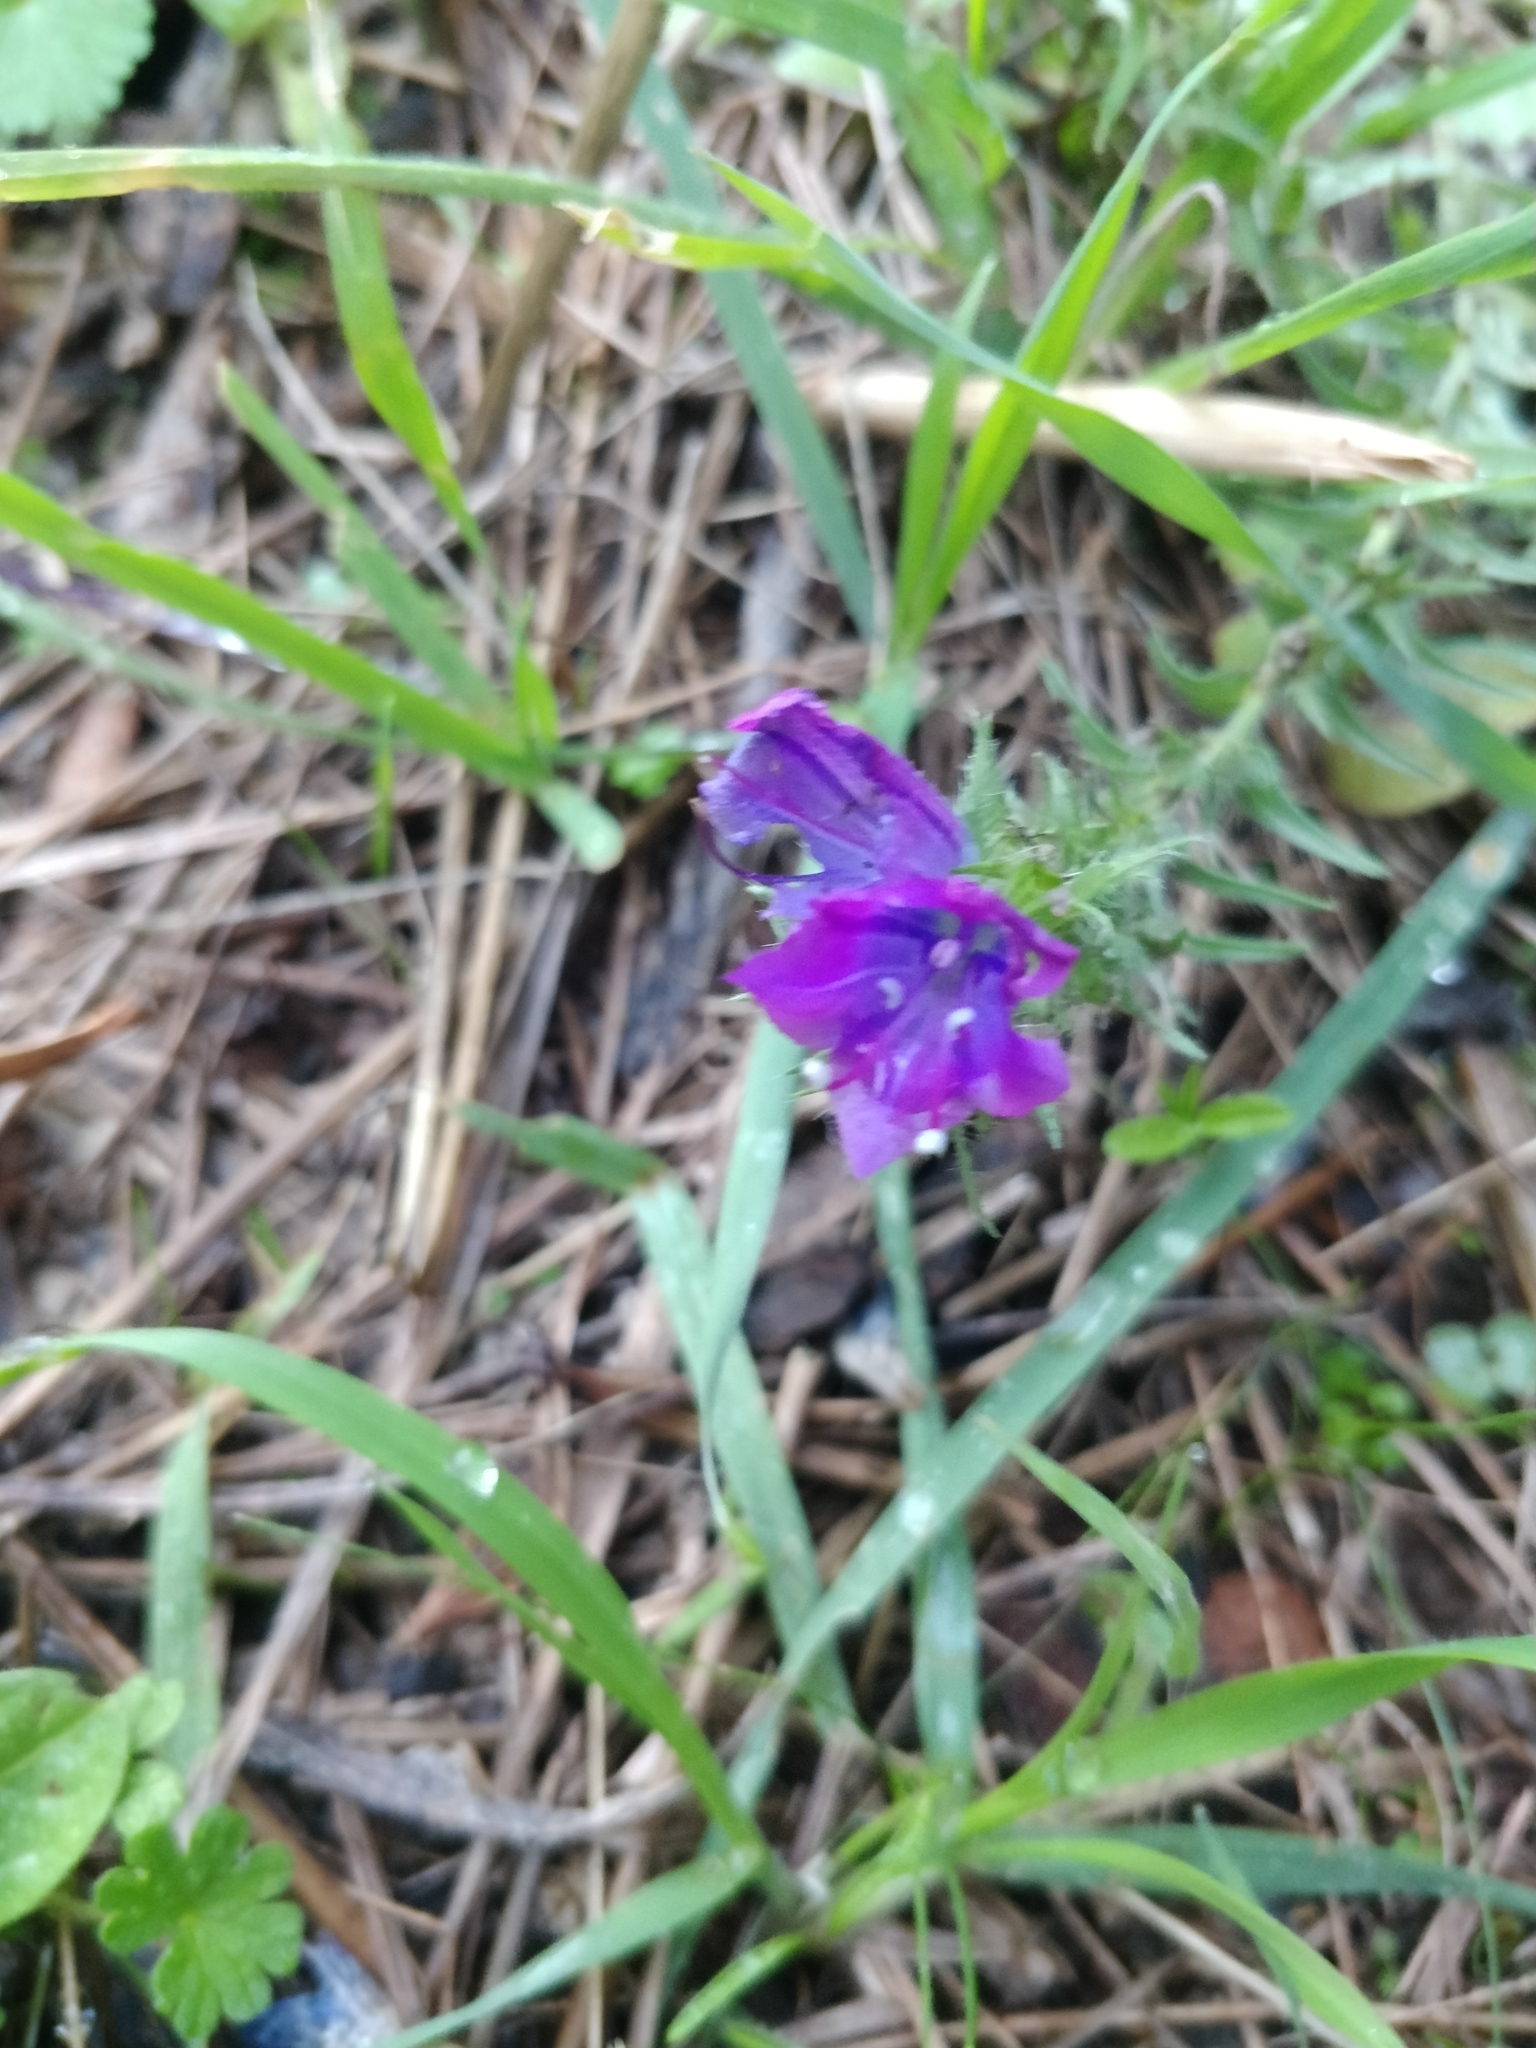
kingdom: Plantae
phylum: Tracheophyta
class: Magnoliopsida
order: Boraginales
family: Boraginaceae
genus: Echium
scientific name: Echium plantagineum
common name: Purple viper's-bugloss
